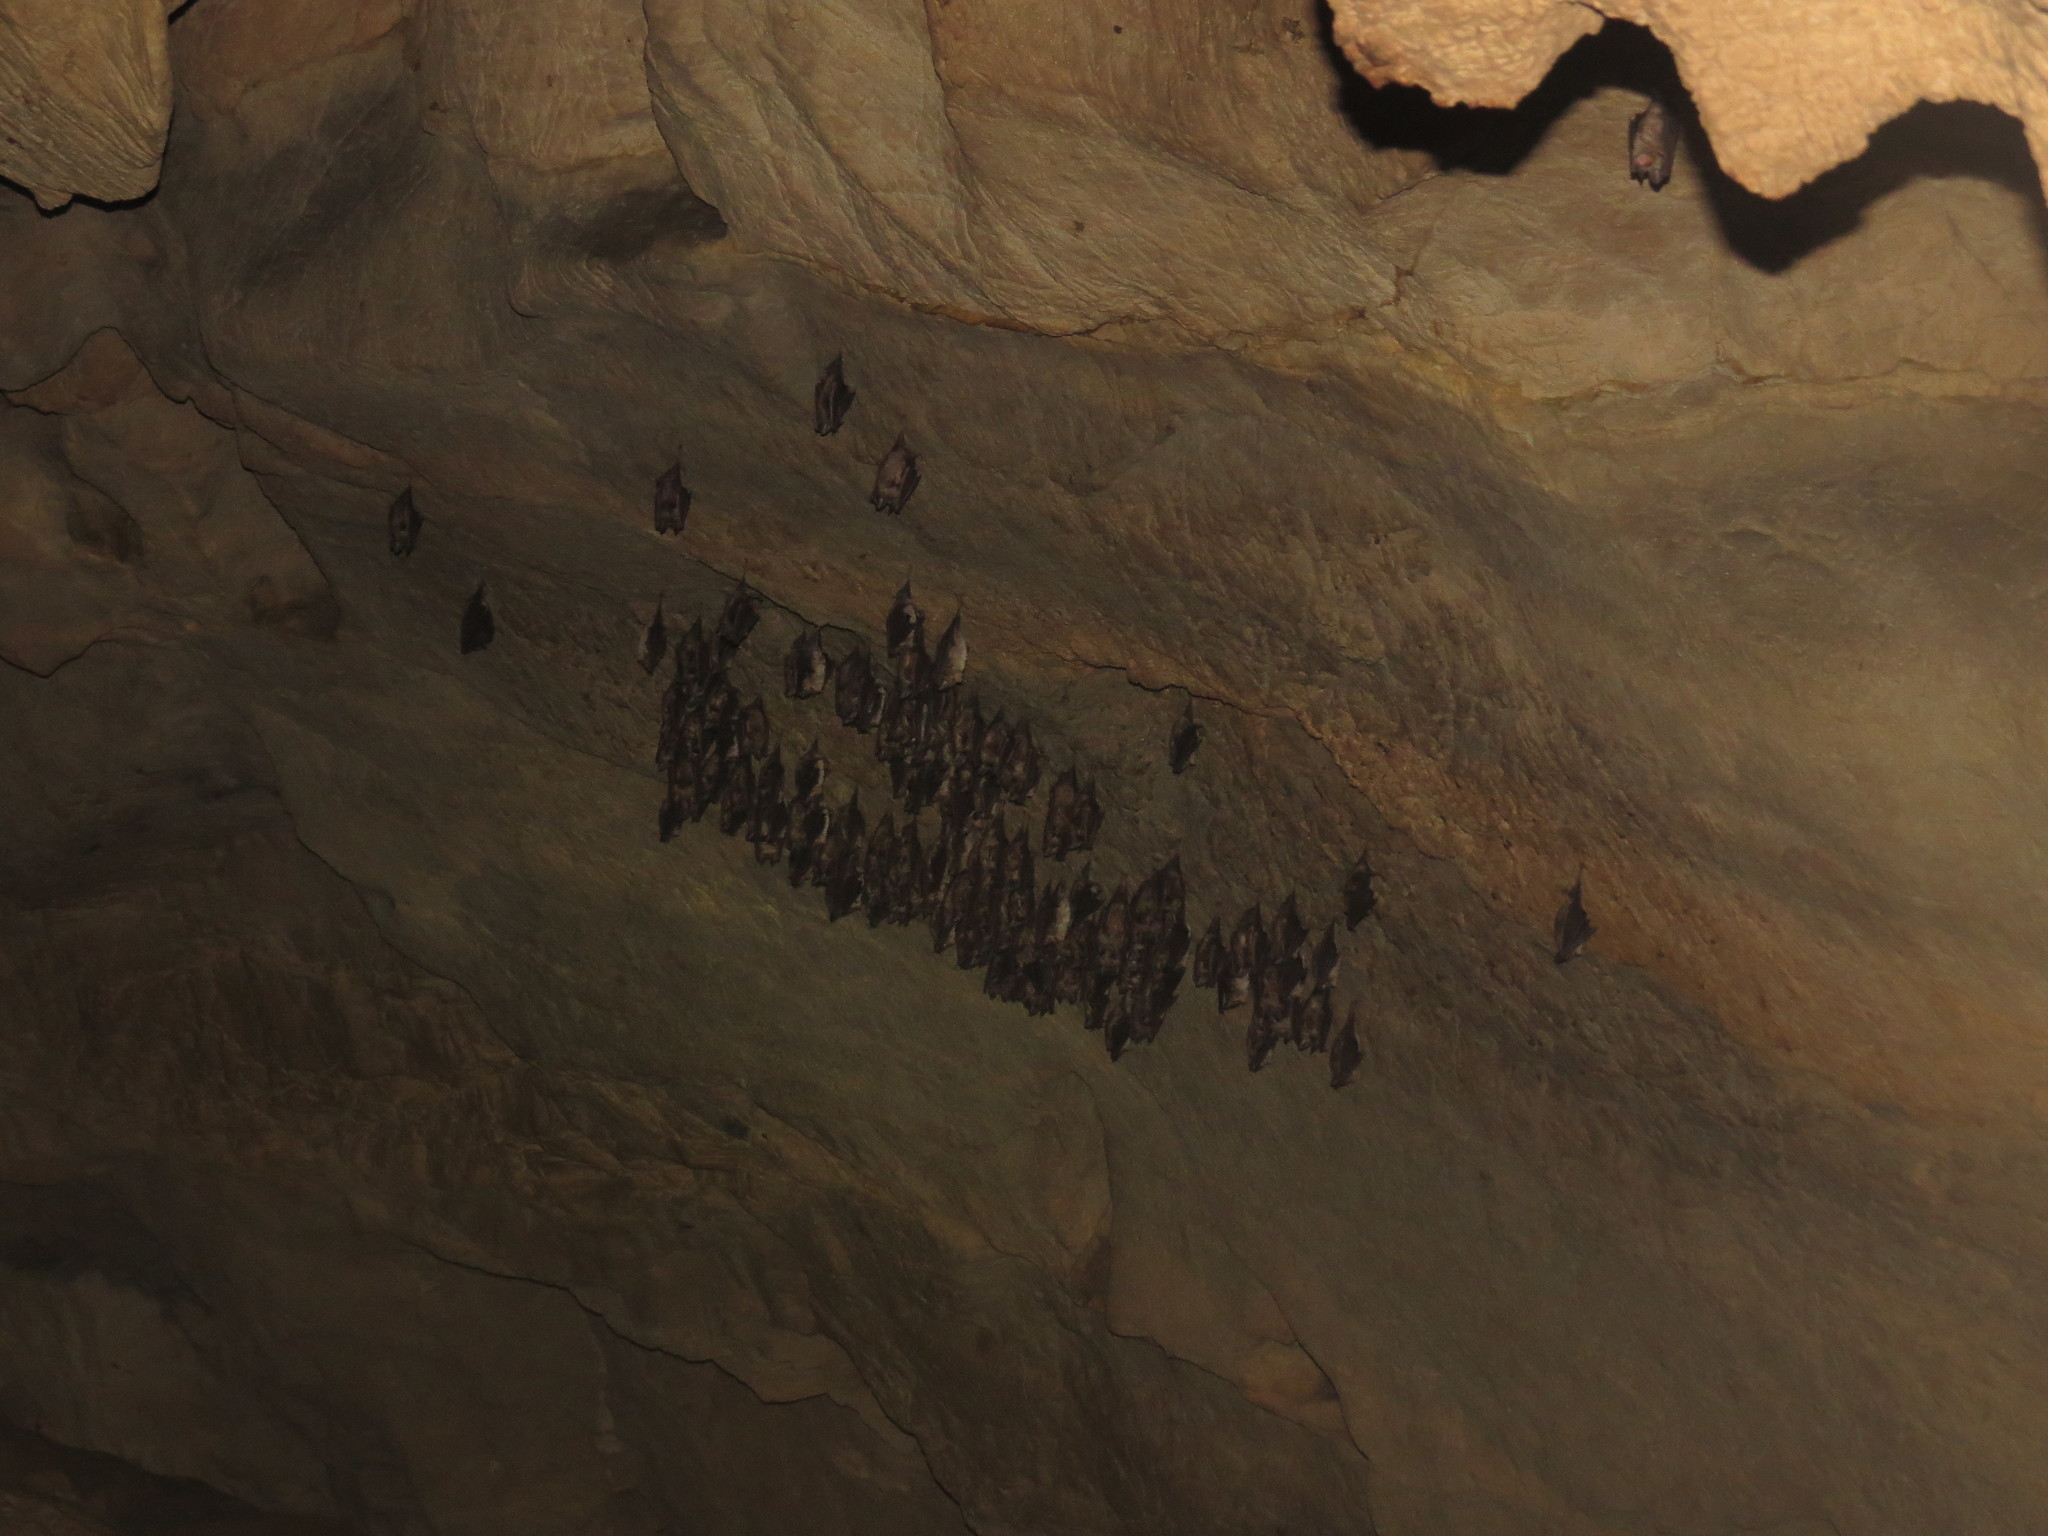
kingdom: Animalia
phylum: Chordata
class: Mammalia
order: Chiroptera
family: Rhinolophidae
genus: Rhinolophus
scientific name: Rhinolophus euryale
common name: Mediterranean horseshoe bat
